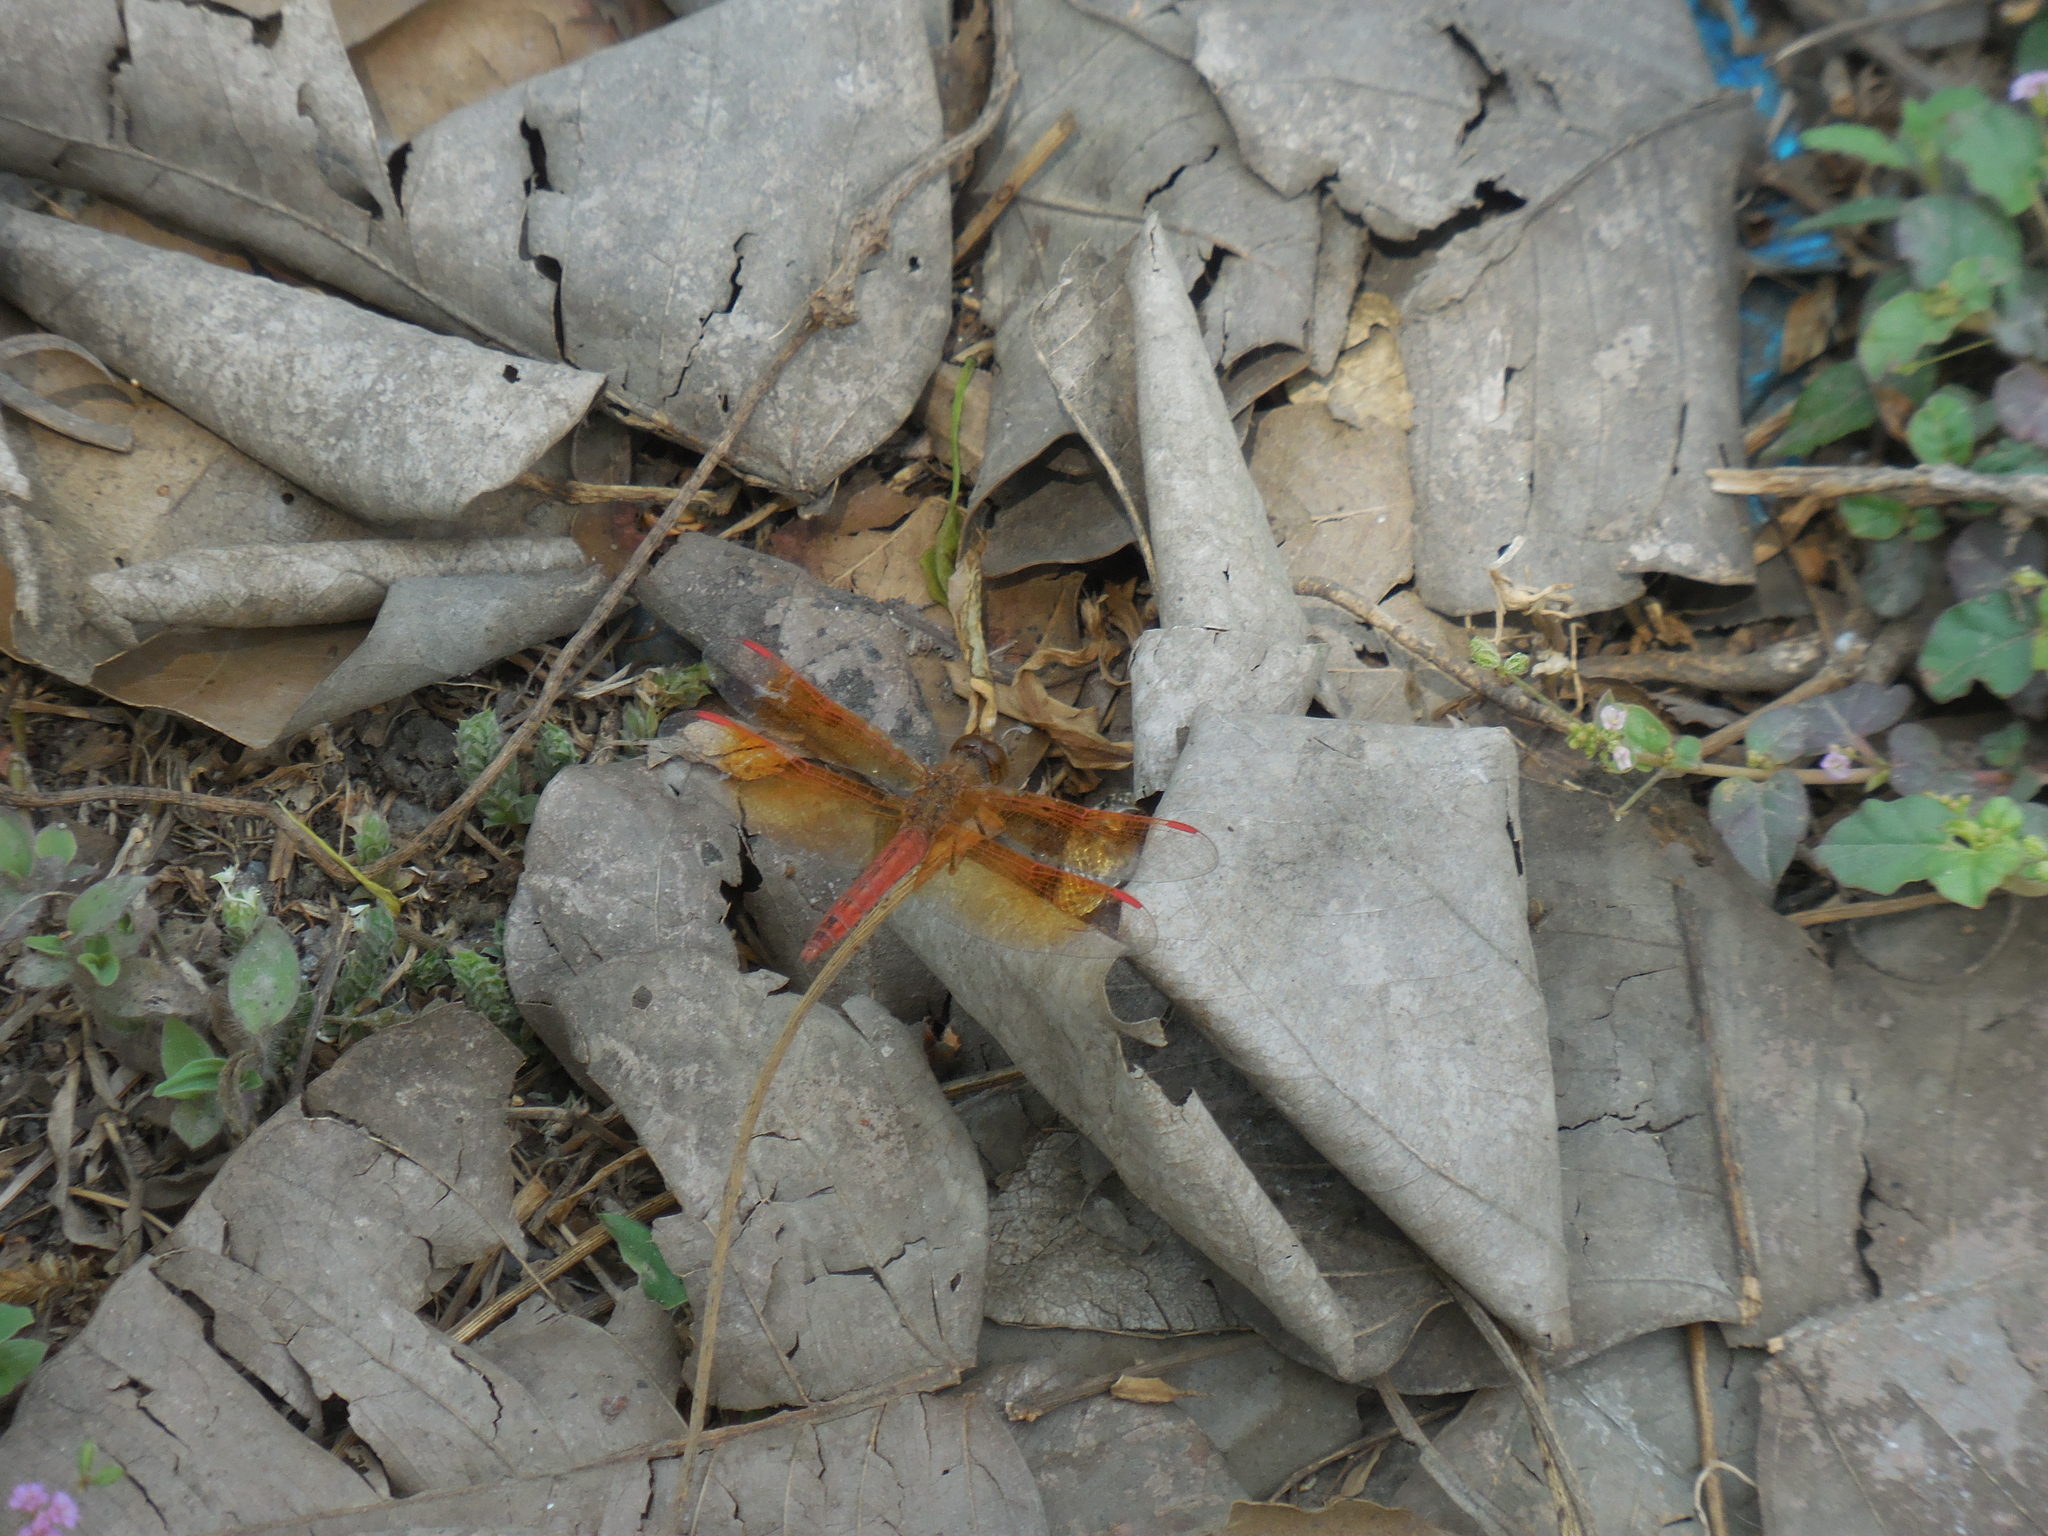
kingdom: Animalia
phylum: Arthropoda
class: Insecta
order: Odonata
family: Libellulidae
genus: Brachythemis
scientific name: Brachythemis contaminata
